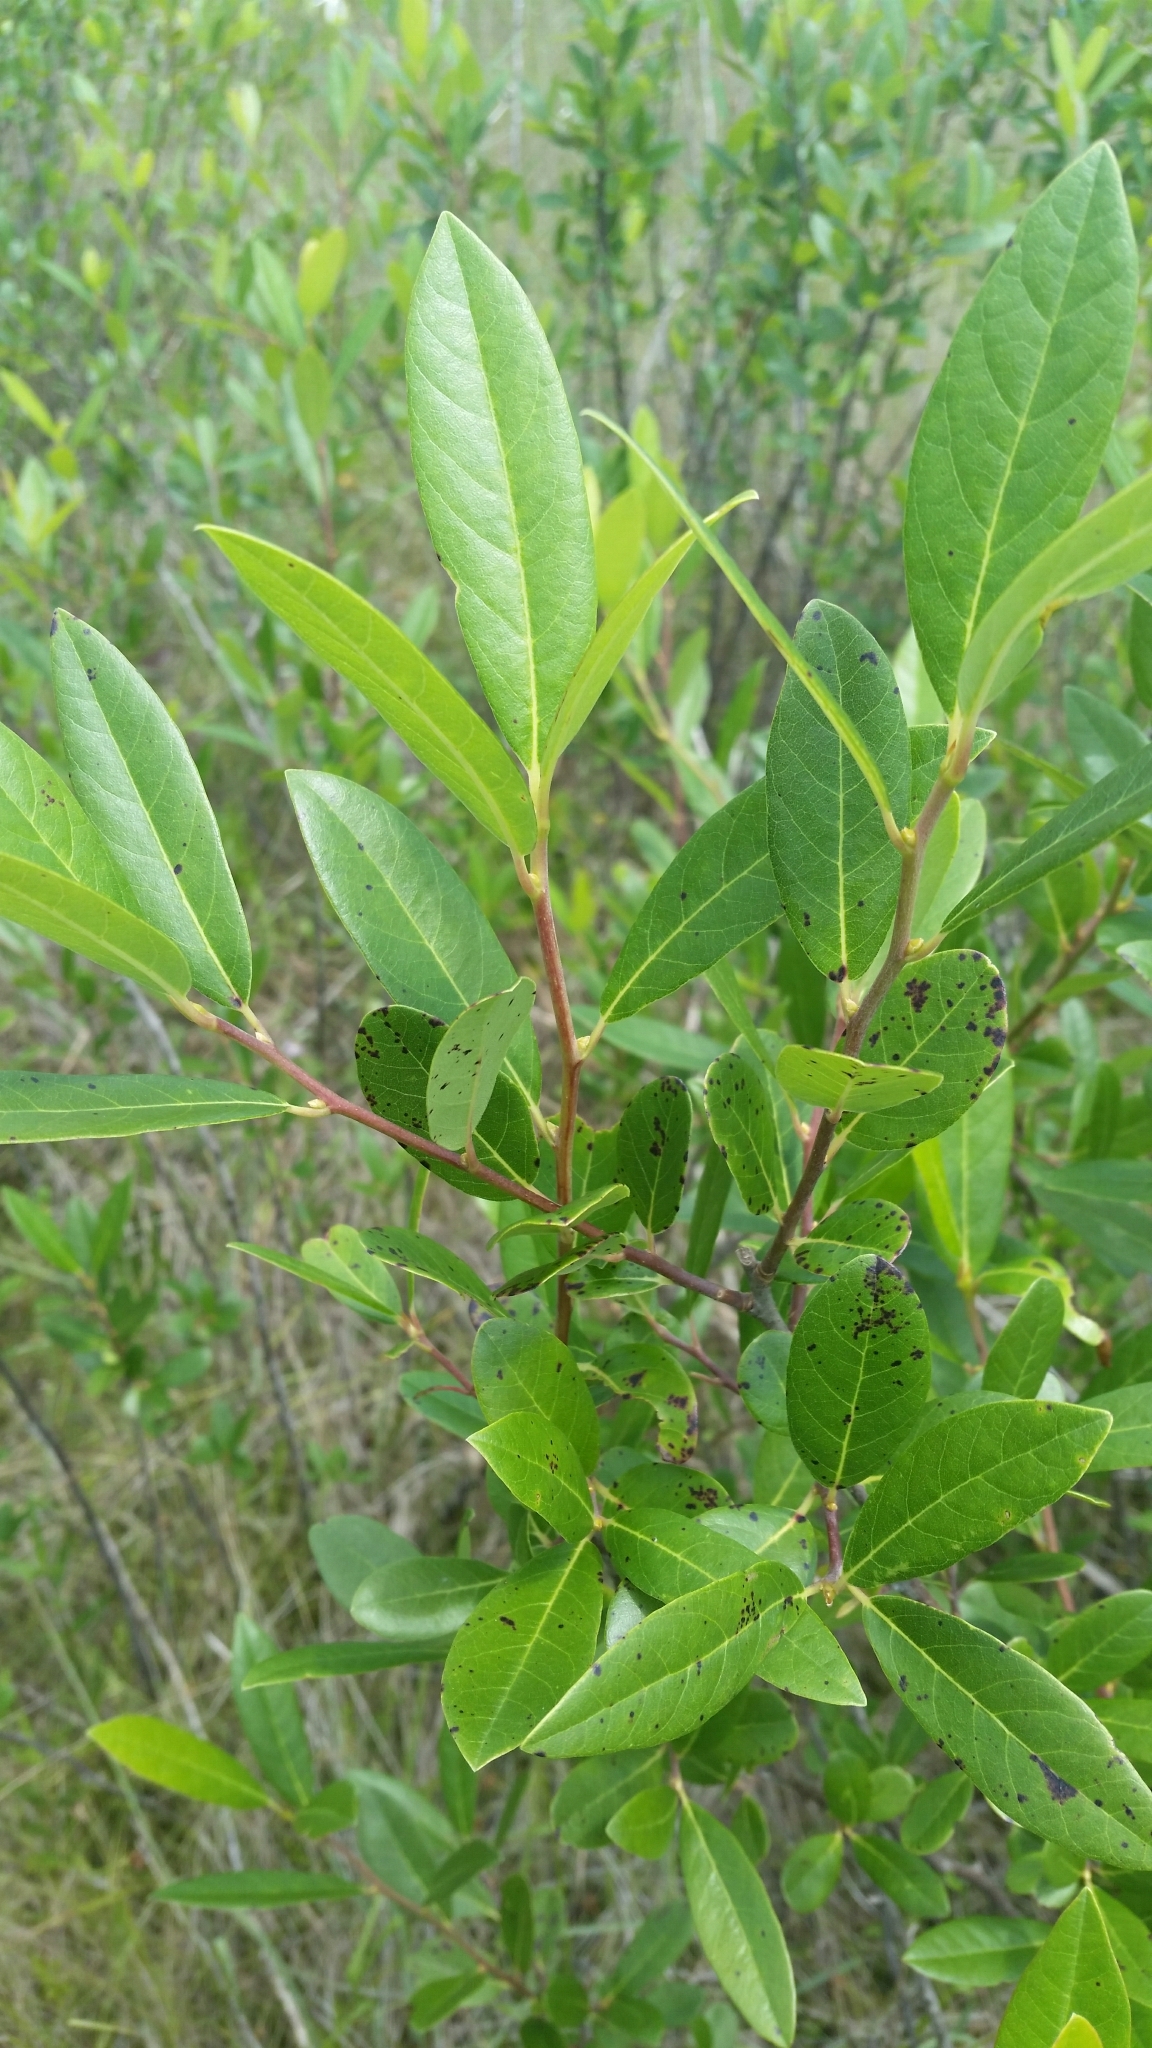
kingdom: Plantae
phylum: Tracheophyta
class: Magnoliopsida
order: Cornales
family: Nyssaceae
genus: Nyssa
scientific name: Nyssa biflora
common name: Swamp blackgum
